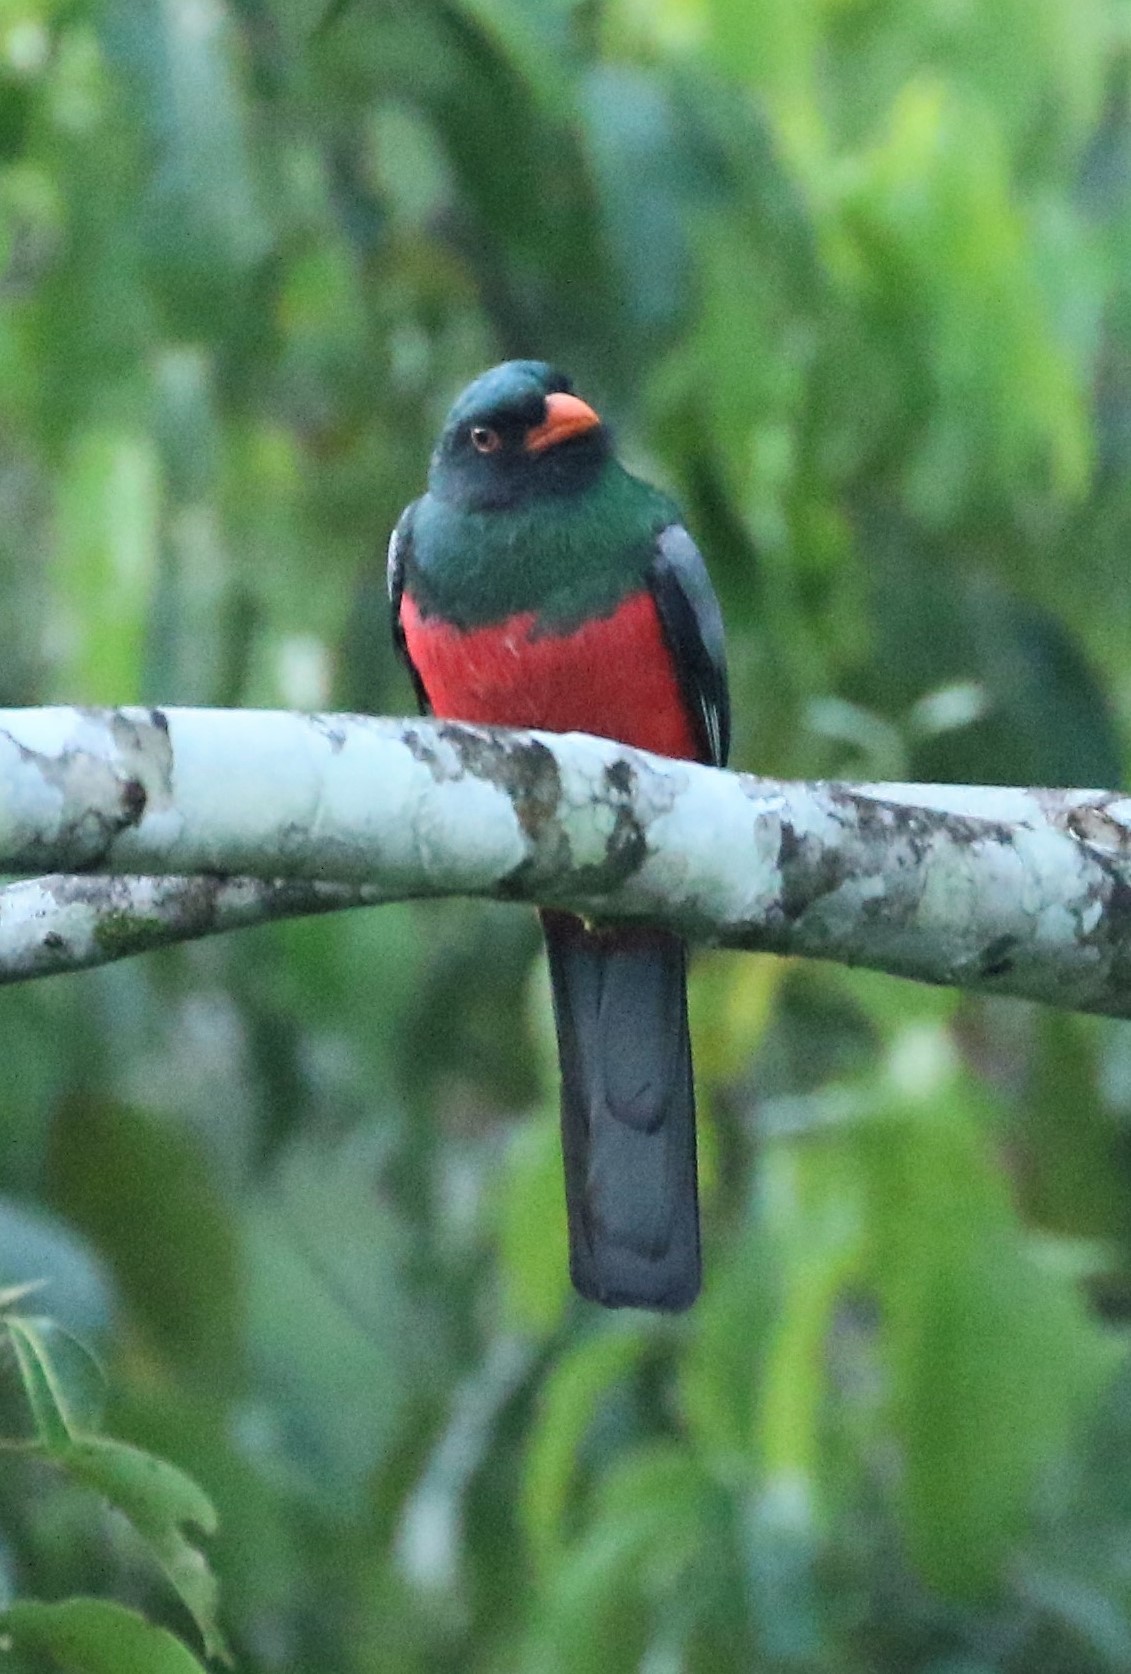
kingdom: Animalia
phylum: Chordata
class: Aves
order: Trogoniformes
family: Trogonidae
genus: Trogon
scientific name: Trogon massena
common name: Slaty-tailed trogon
